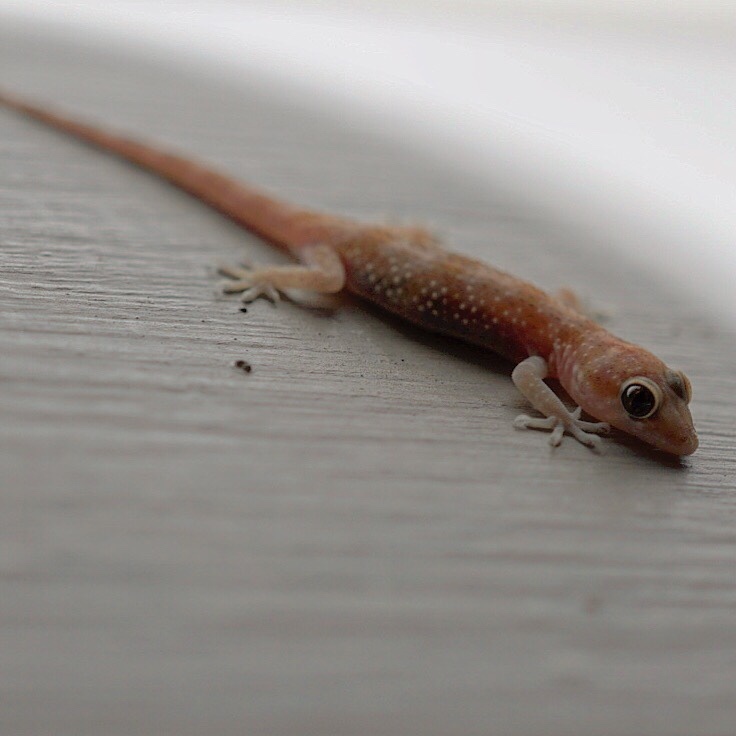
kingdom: Animalia
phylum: Chordata
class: Squamata
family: Gekkonidae
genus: Hemidactylus
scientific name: Hemidactylus turcicus
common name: Turkish gecko
